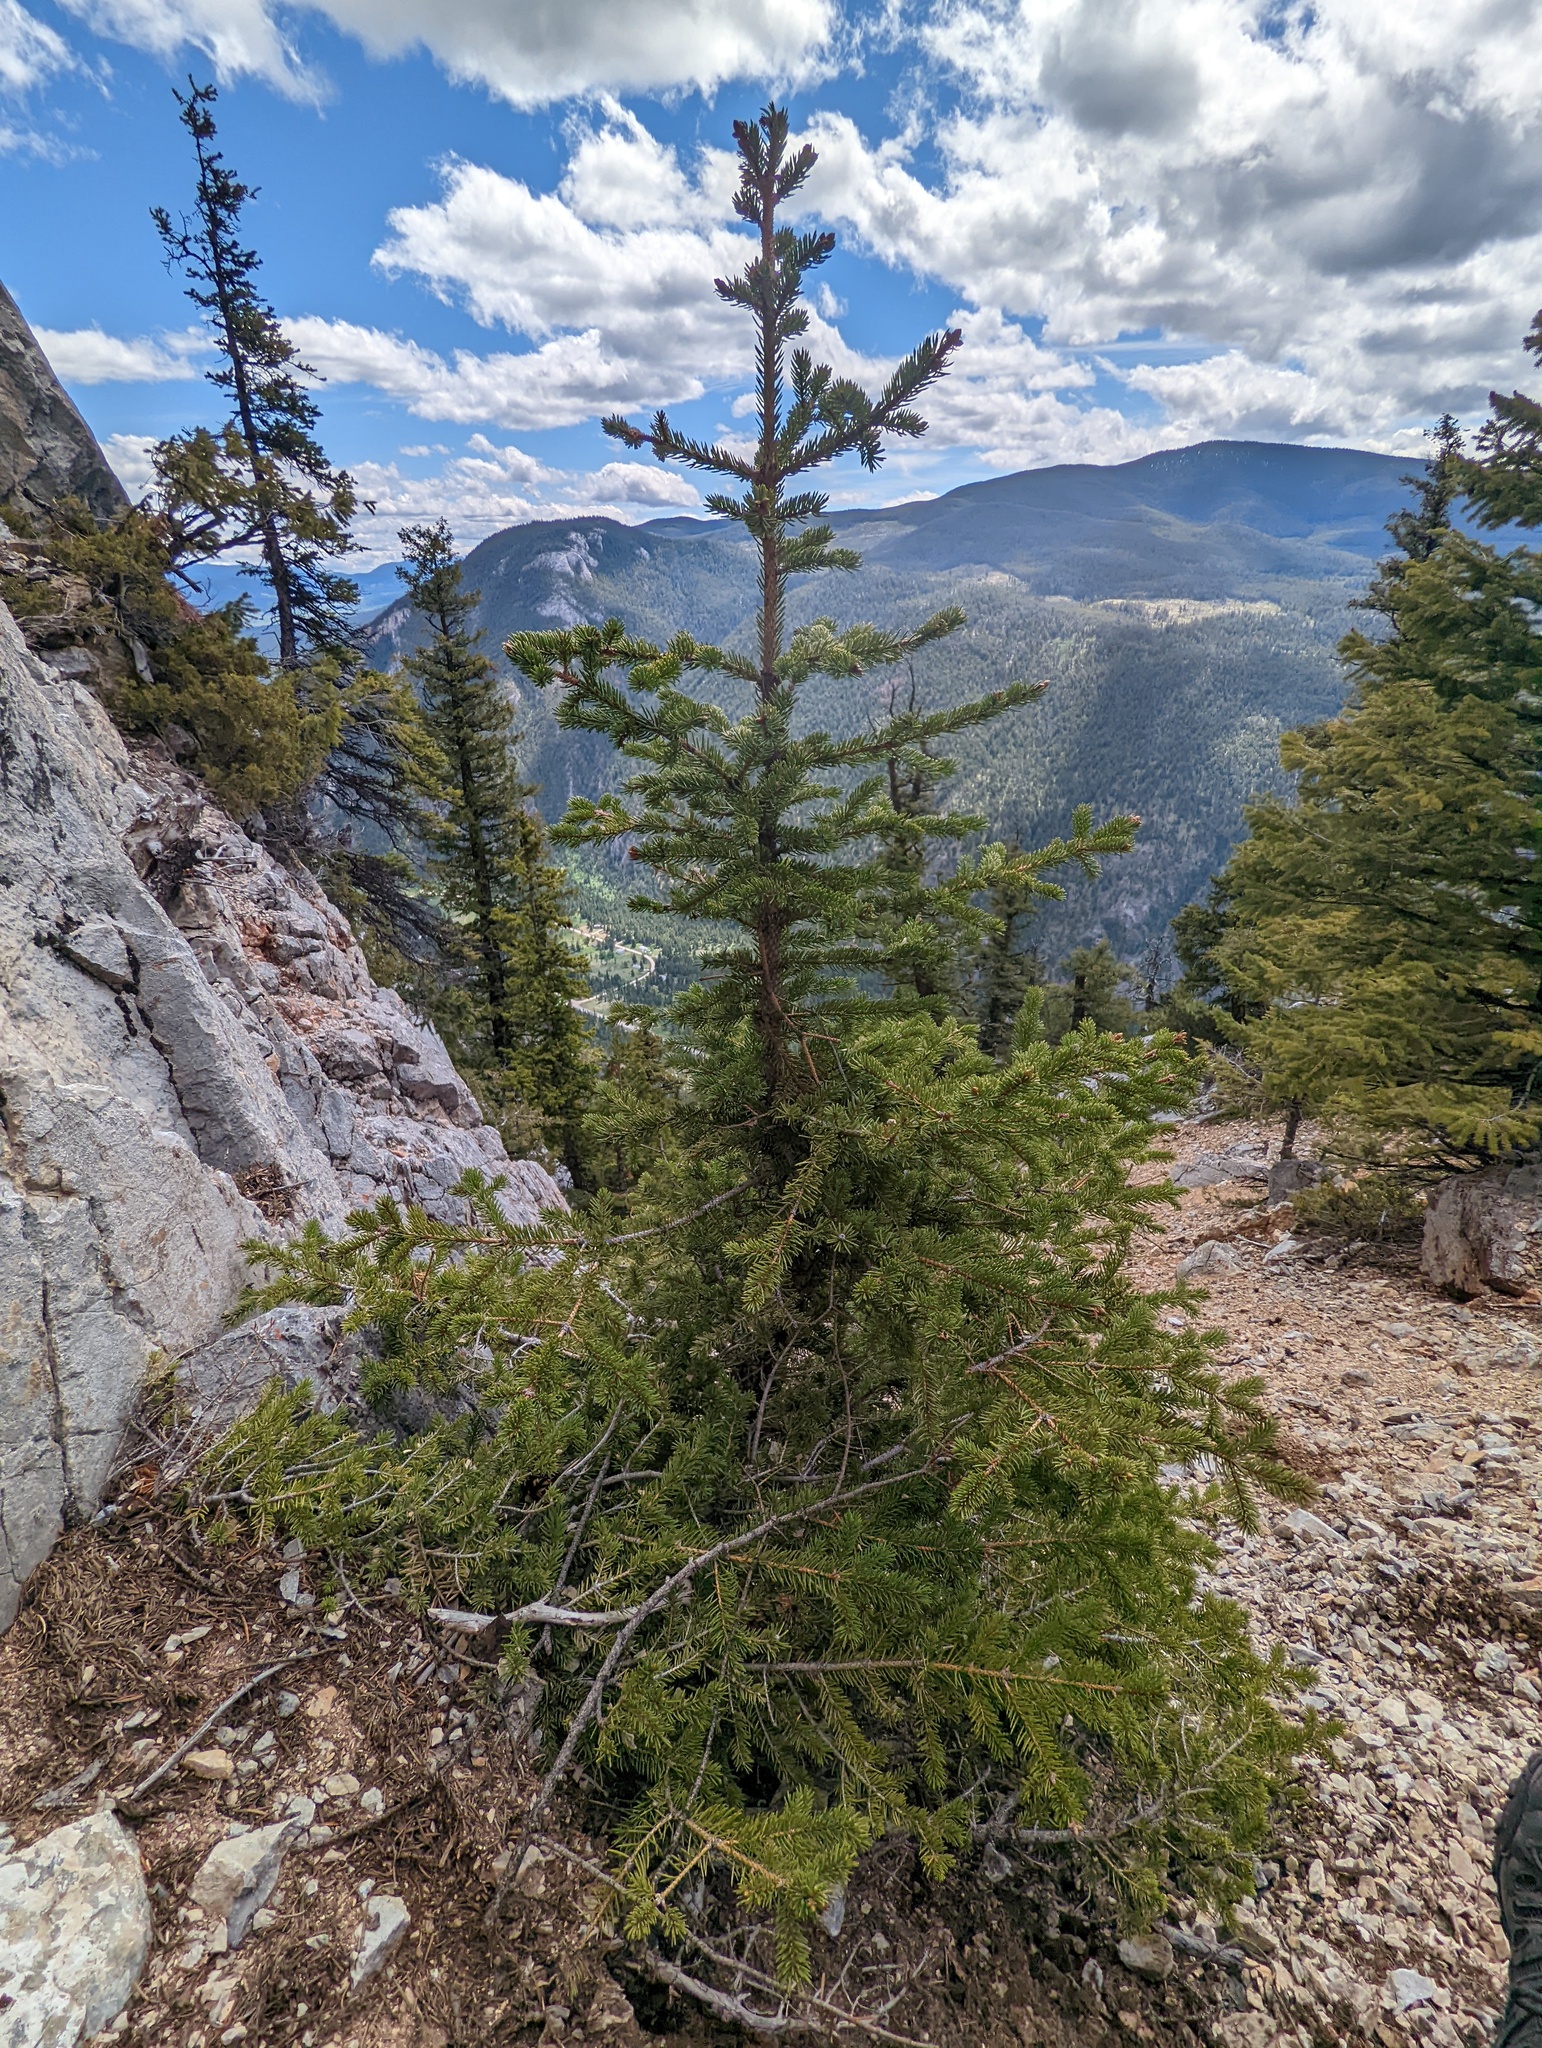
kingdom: Plantae
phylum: Tracheophyta
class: Pinopsida
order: Pinales
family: Pinaceae
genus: Picea
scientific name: Picea glauca
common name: White spruce
